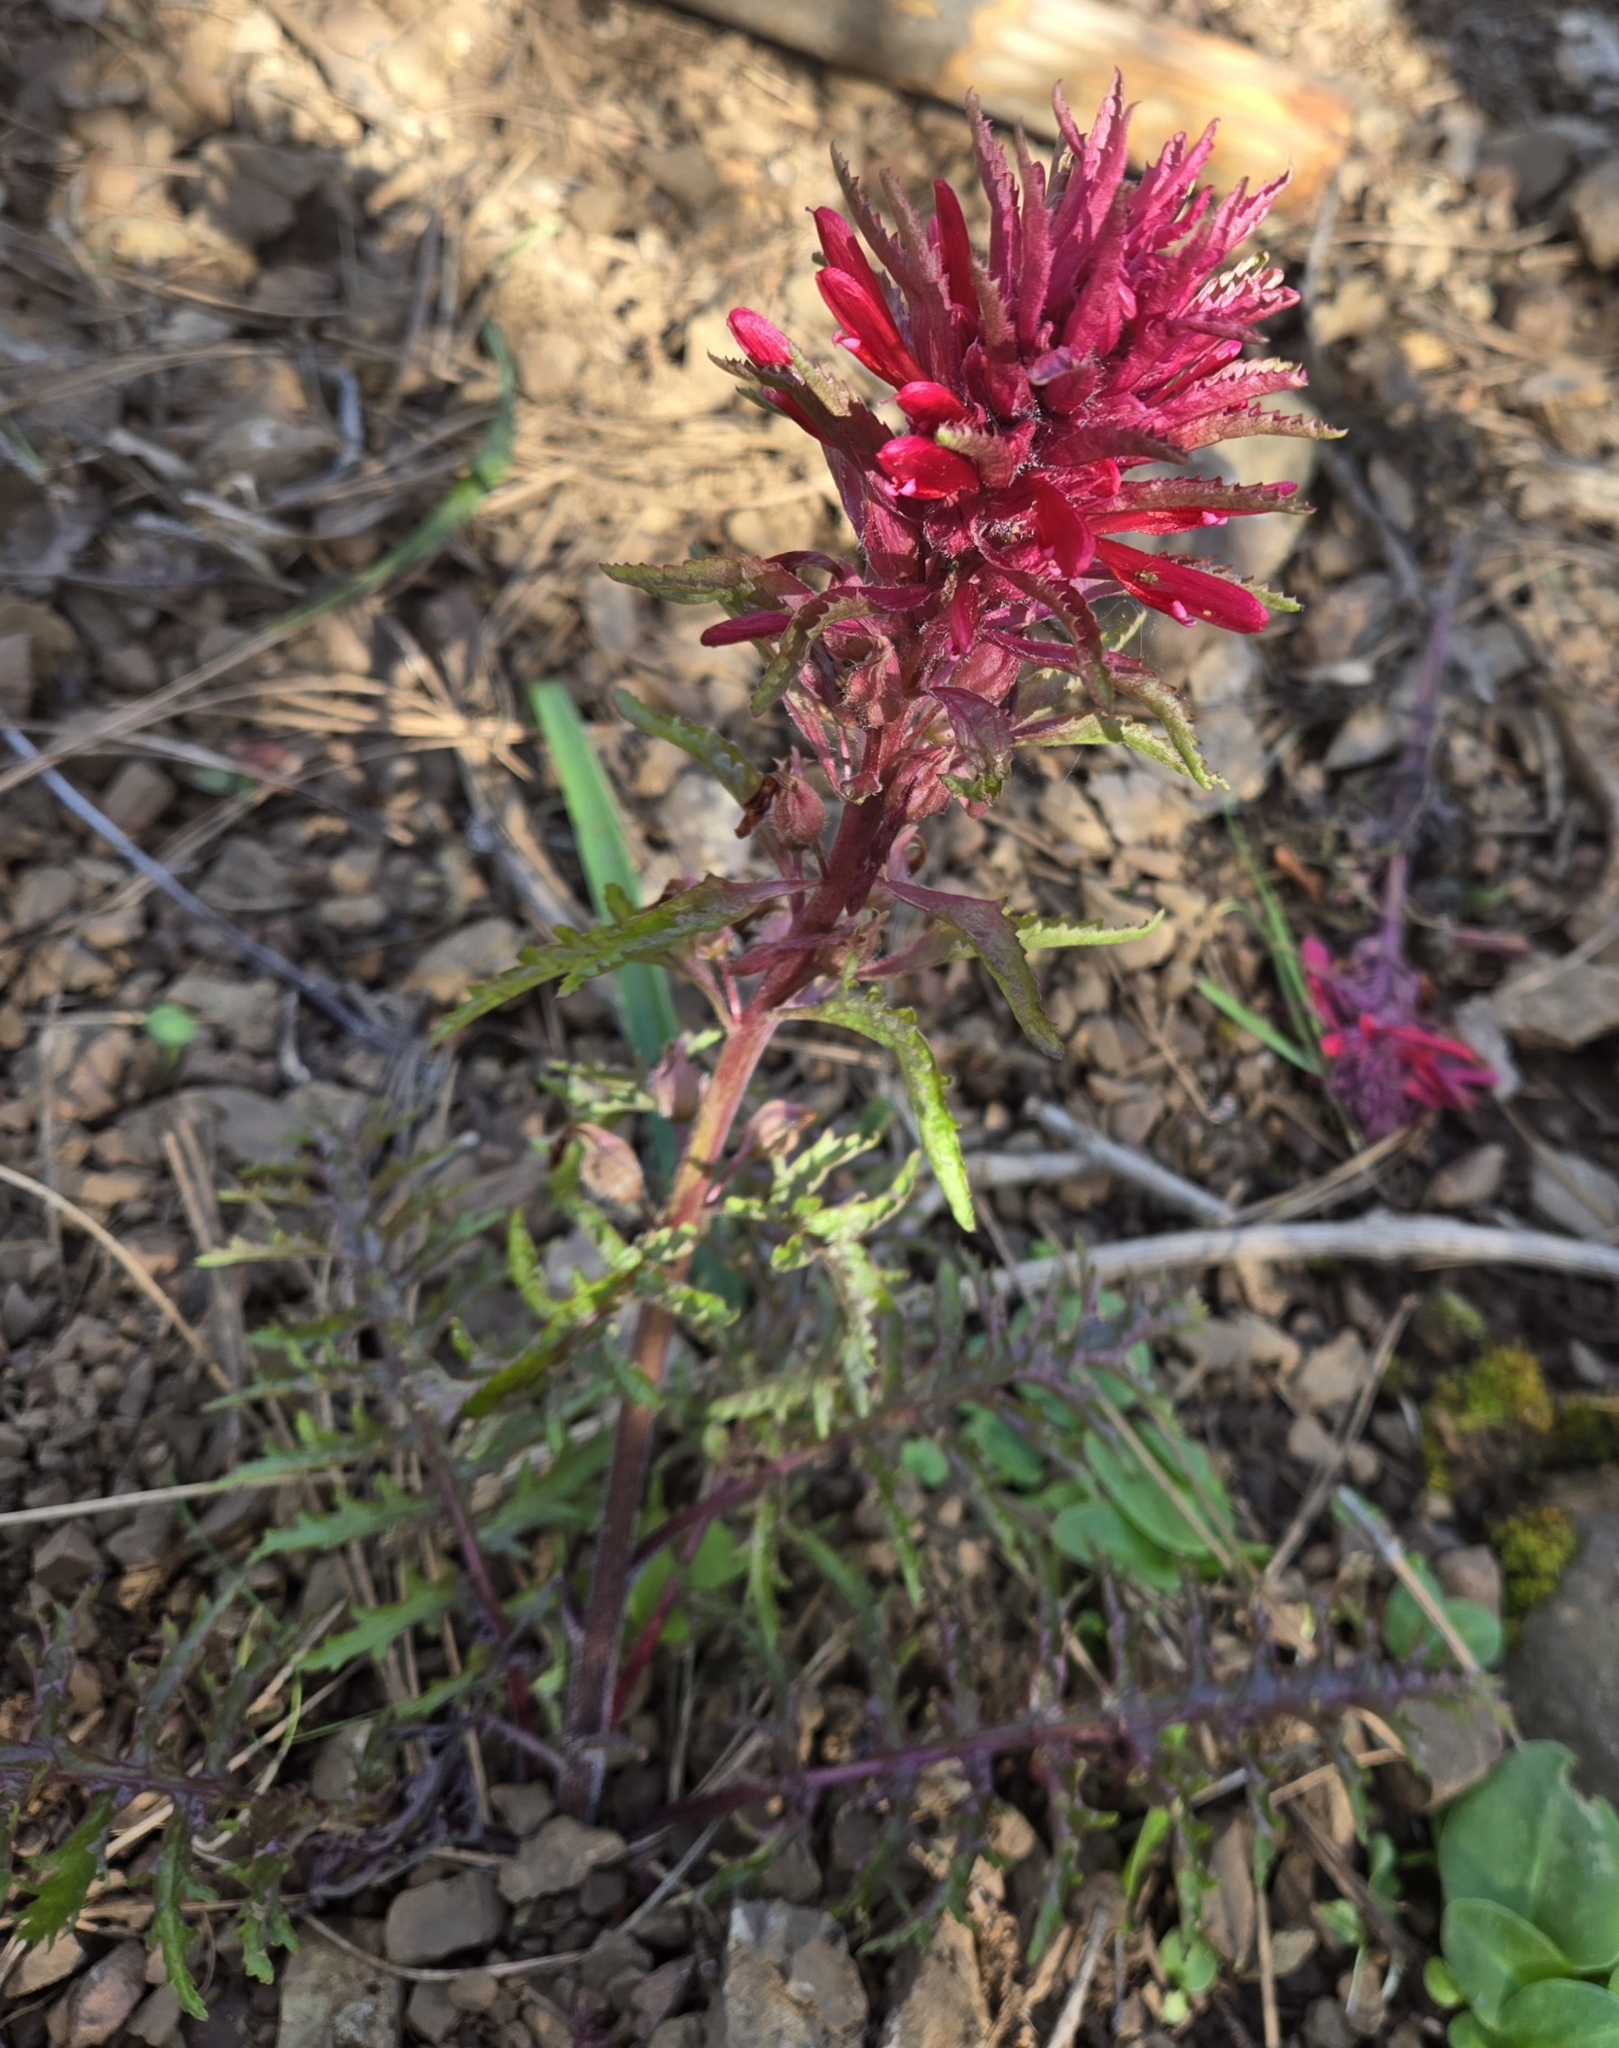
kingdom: Plantae
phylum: Tracheophyta
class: Magnoliopsida
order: Lamiales
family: Orobanchaceae
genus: Pedicularis
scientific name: Pedicularis densiflora
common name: Indian warrior
